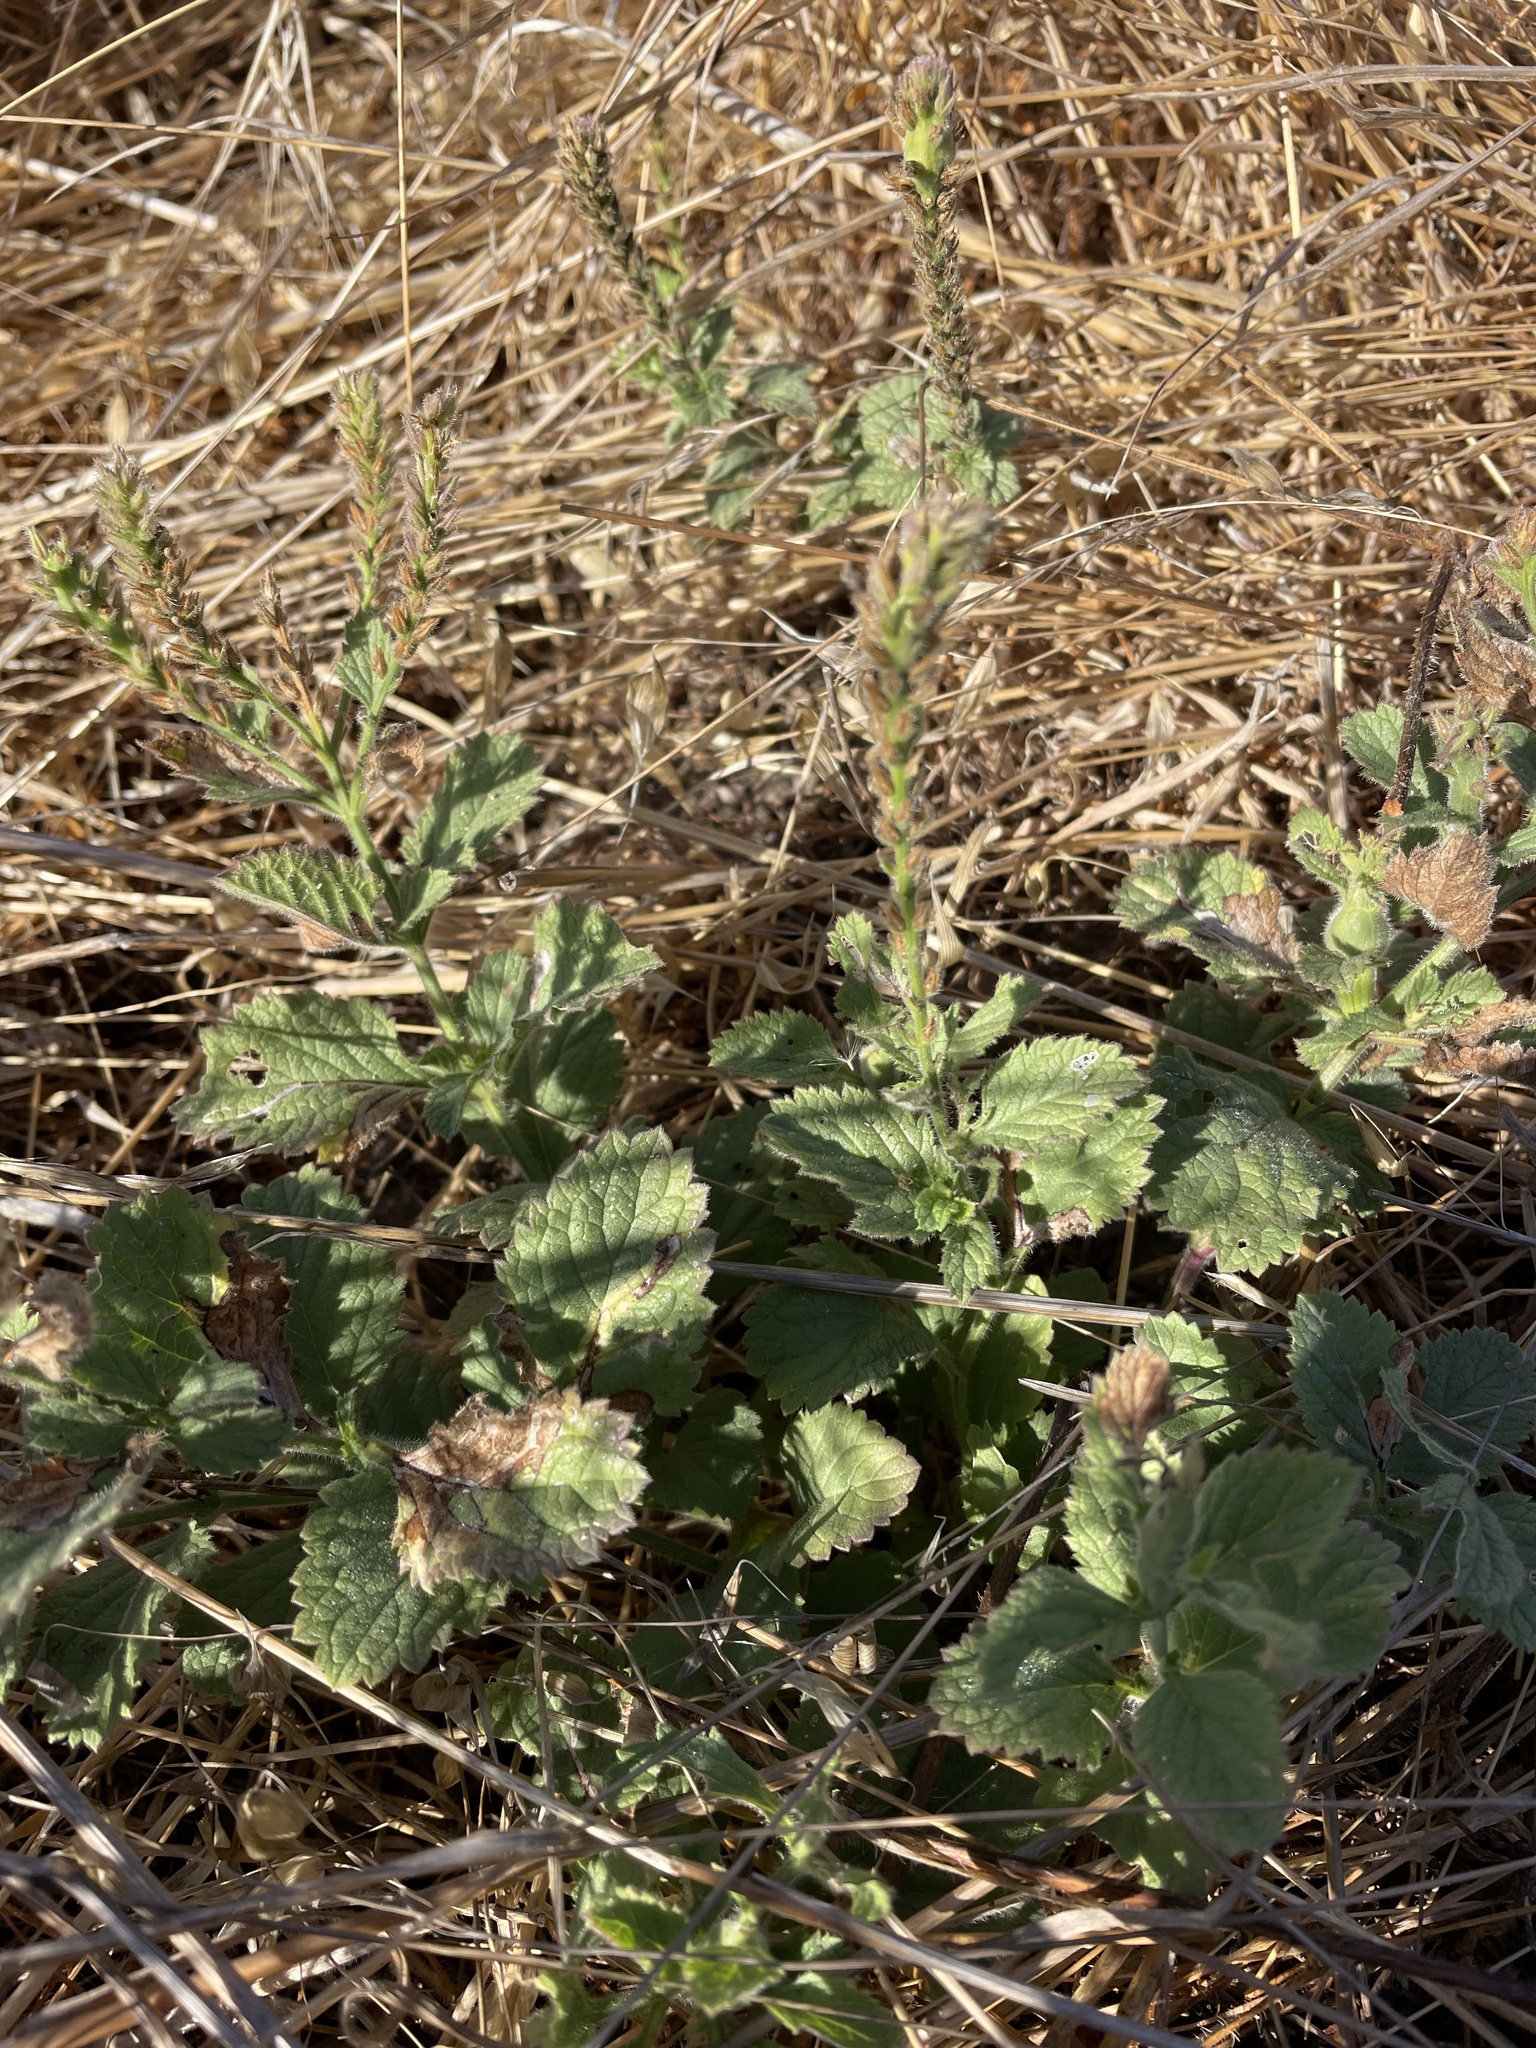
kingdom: Animalia
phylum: Arthropoda
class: Insecta
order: Diptera
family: Cecidomyiidae
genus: Neolasioptera
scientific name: Neolasioptera verbenae
